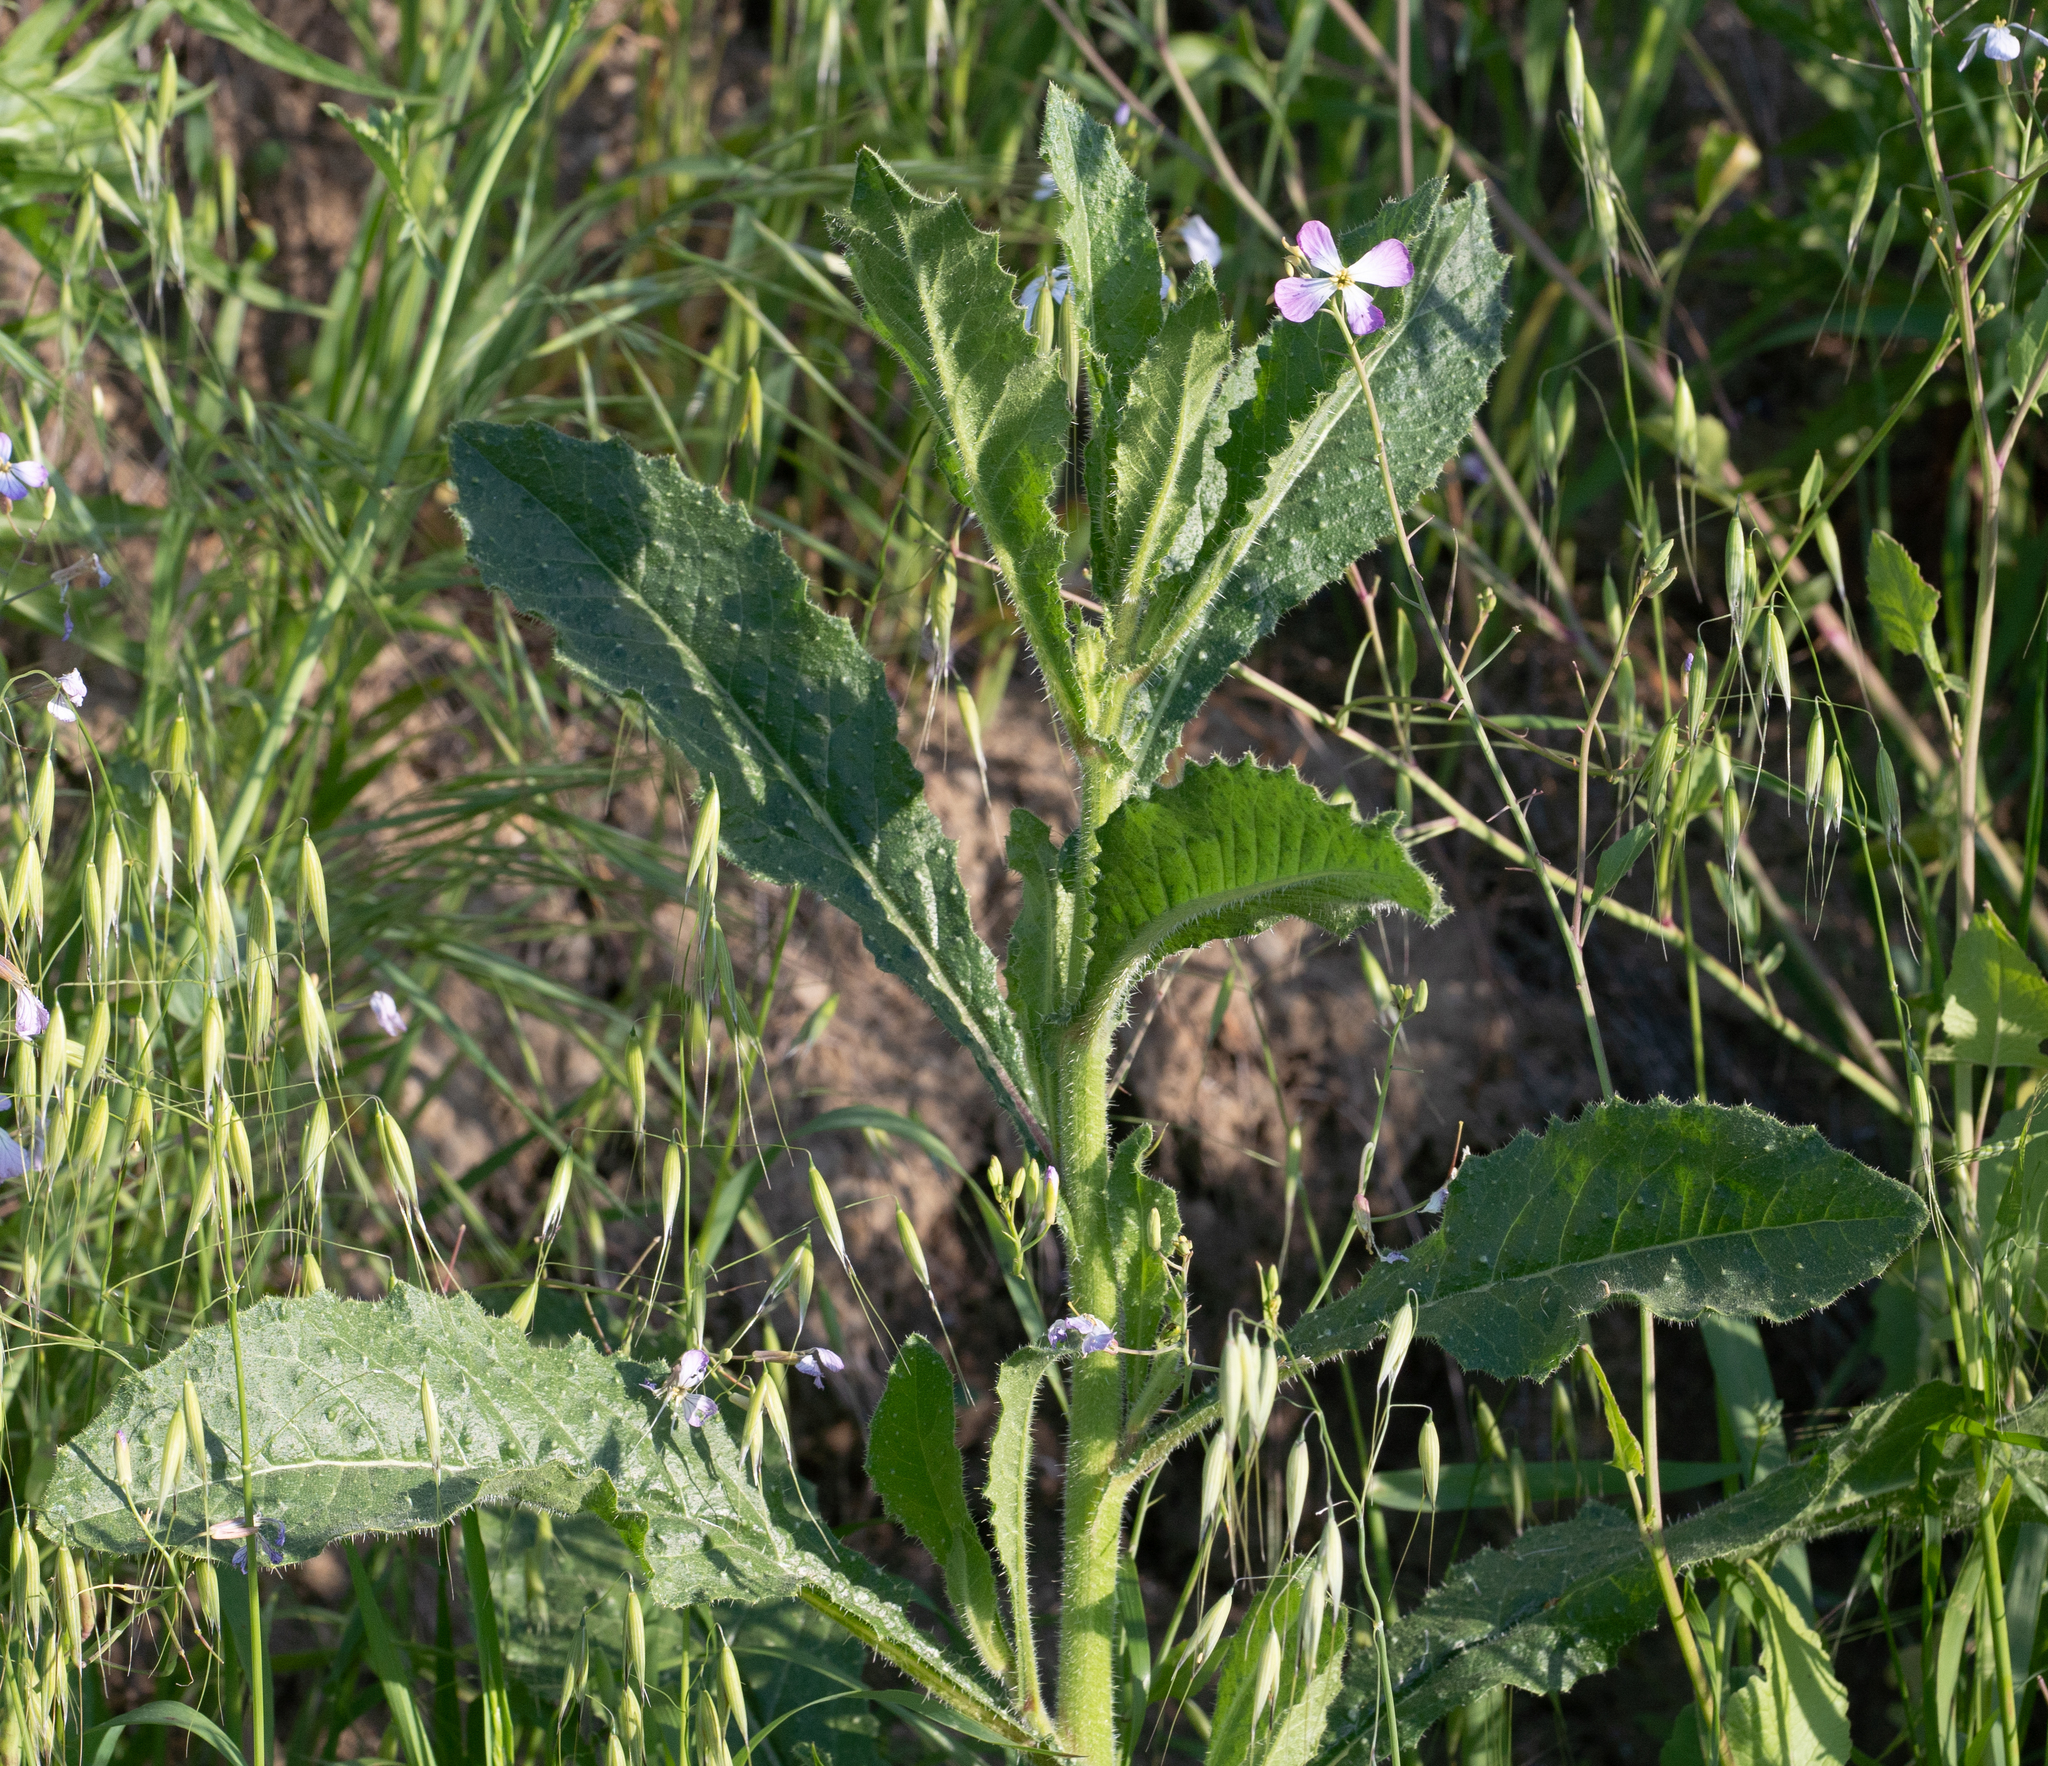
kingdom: Plantae
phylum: Tracheophyta
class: Magnoliopsida
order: Asterales
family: Asteraceae
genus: Helminthotheca
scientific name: Helminthotheca echioides
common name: Ox-tongue
